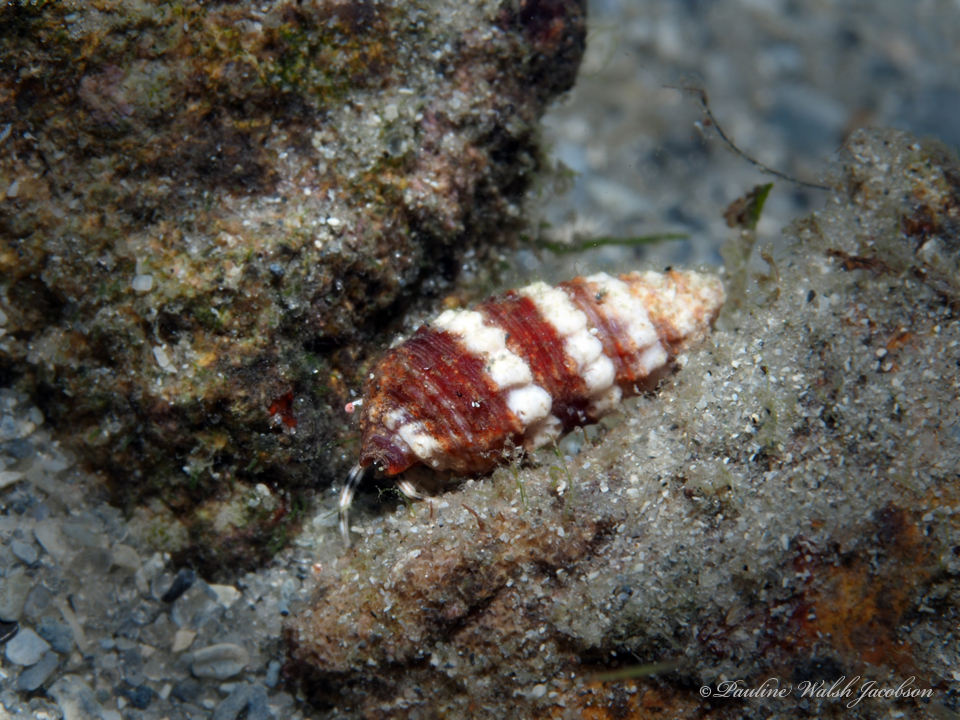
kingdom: Animalia
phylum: Arthropoda
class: Malacostraca
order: Decapoda
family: Paguridae
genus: Pagurus
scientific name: Pagurus brevidactylus
